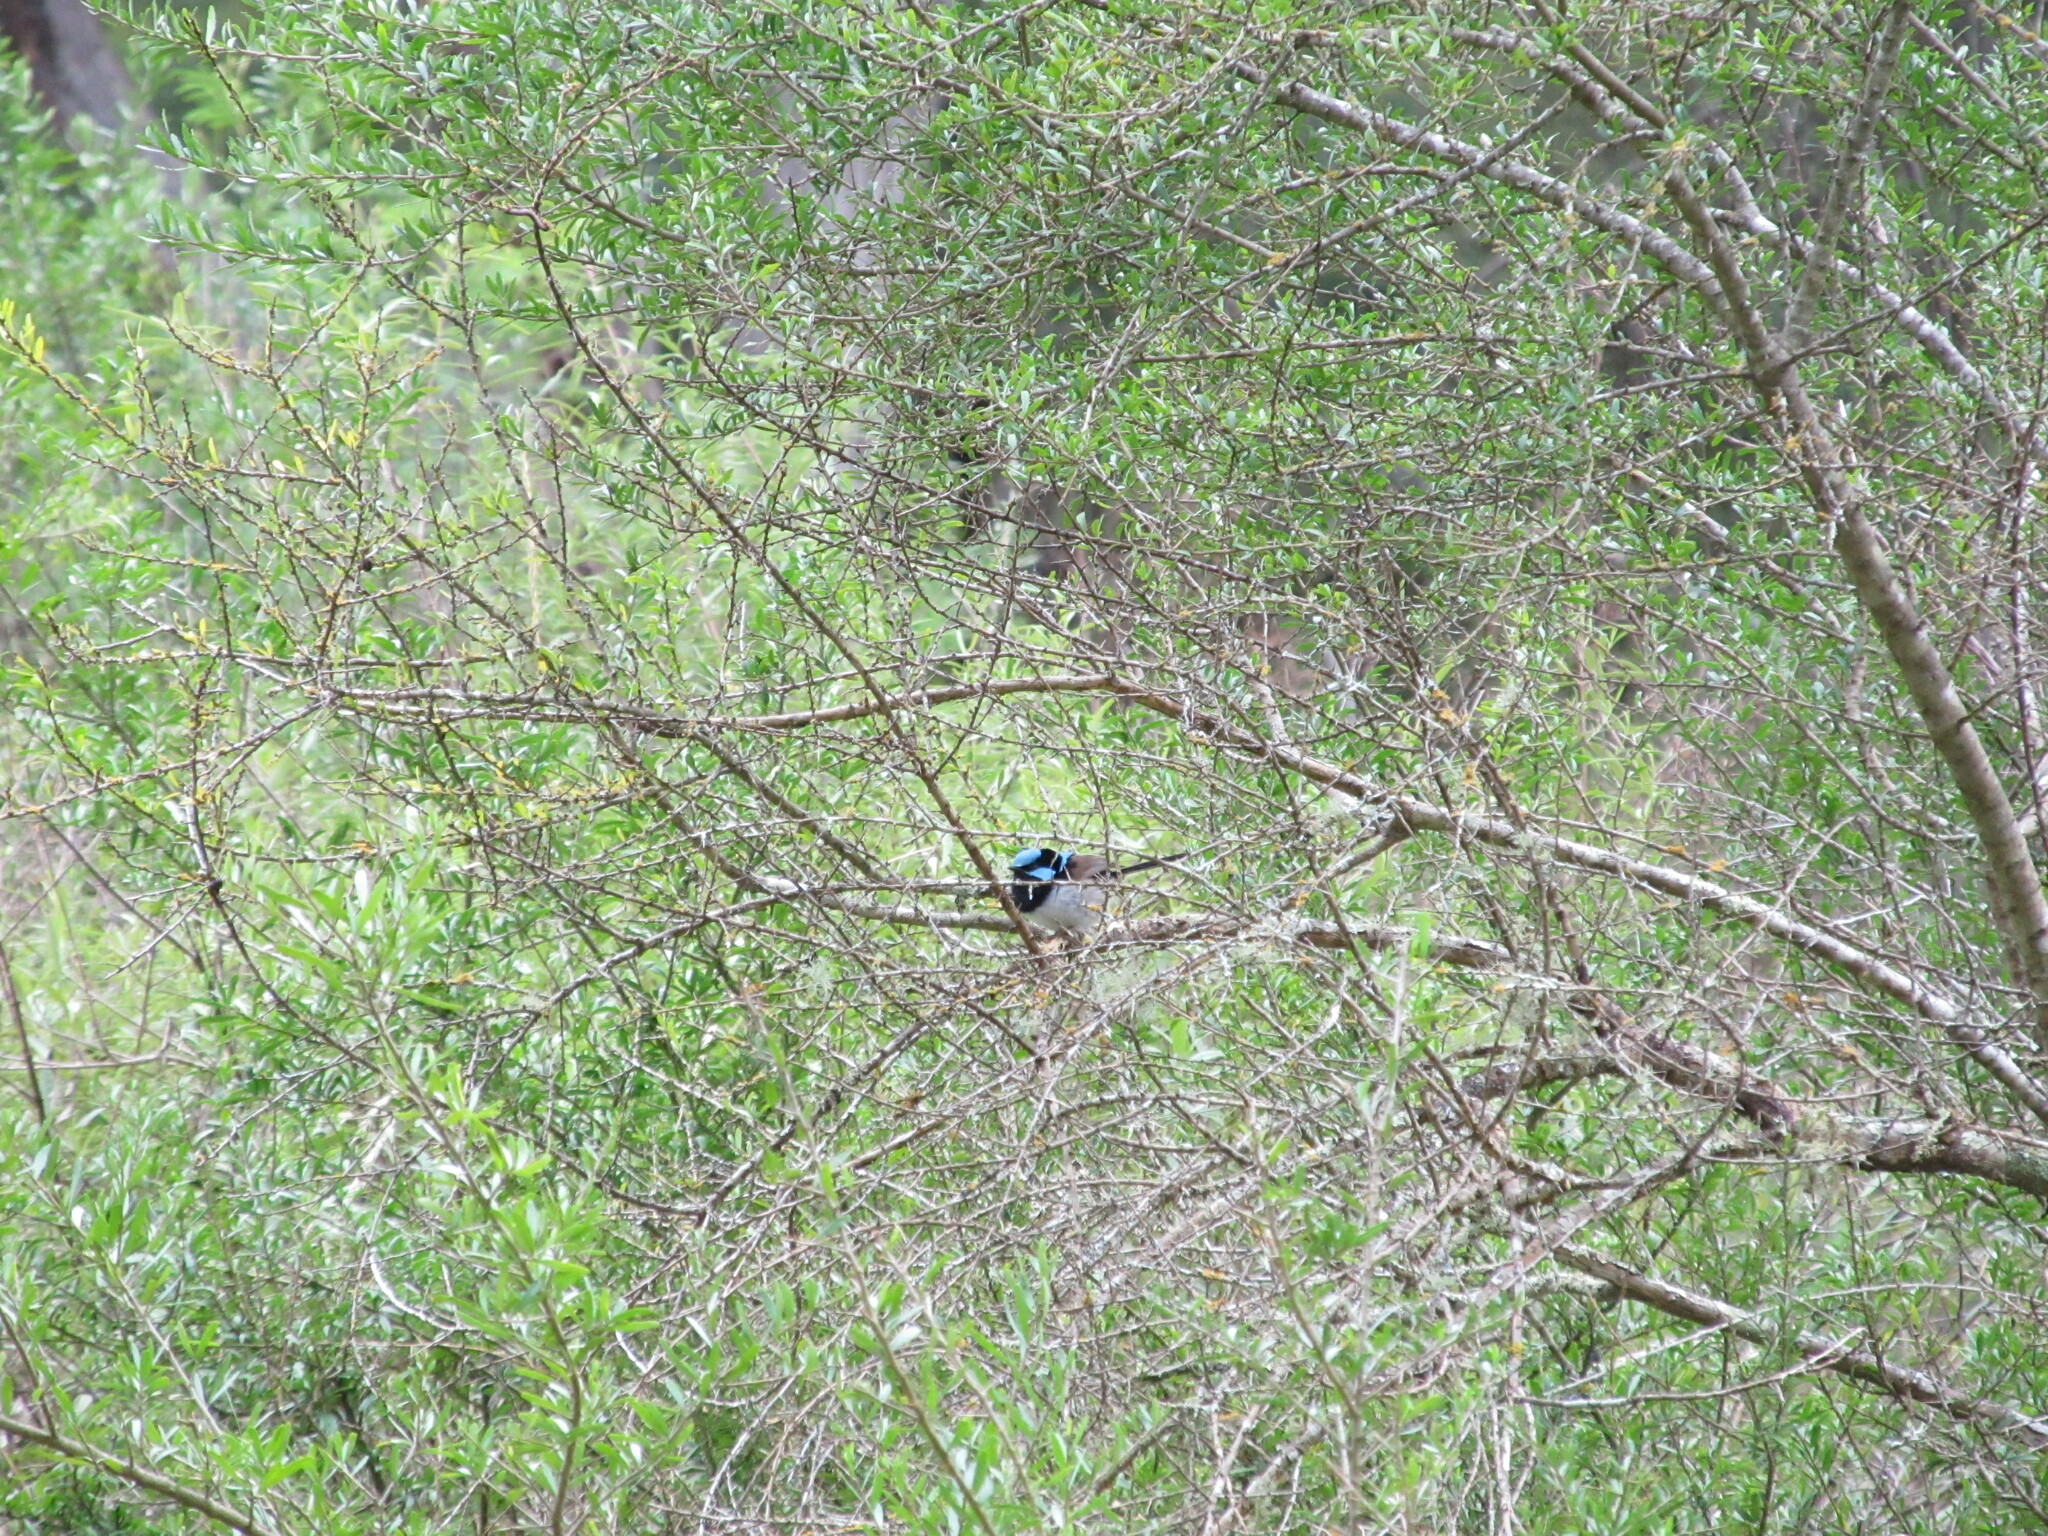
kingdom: Animalia
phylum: Chordata
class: Aves
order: Passeriformes
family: Maluridae
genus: Malurus
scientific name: Malurus cyaneus
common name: Superb fairywren
